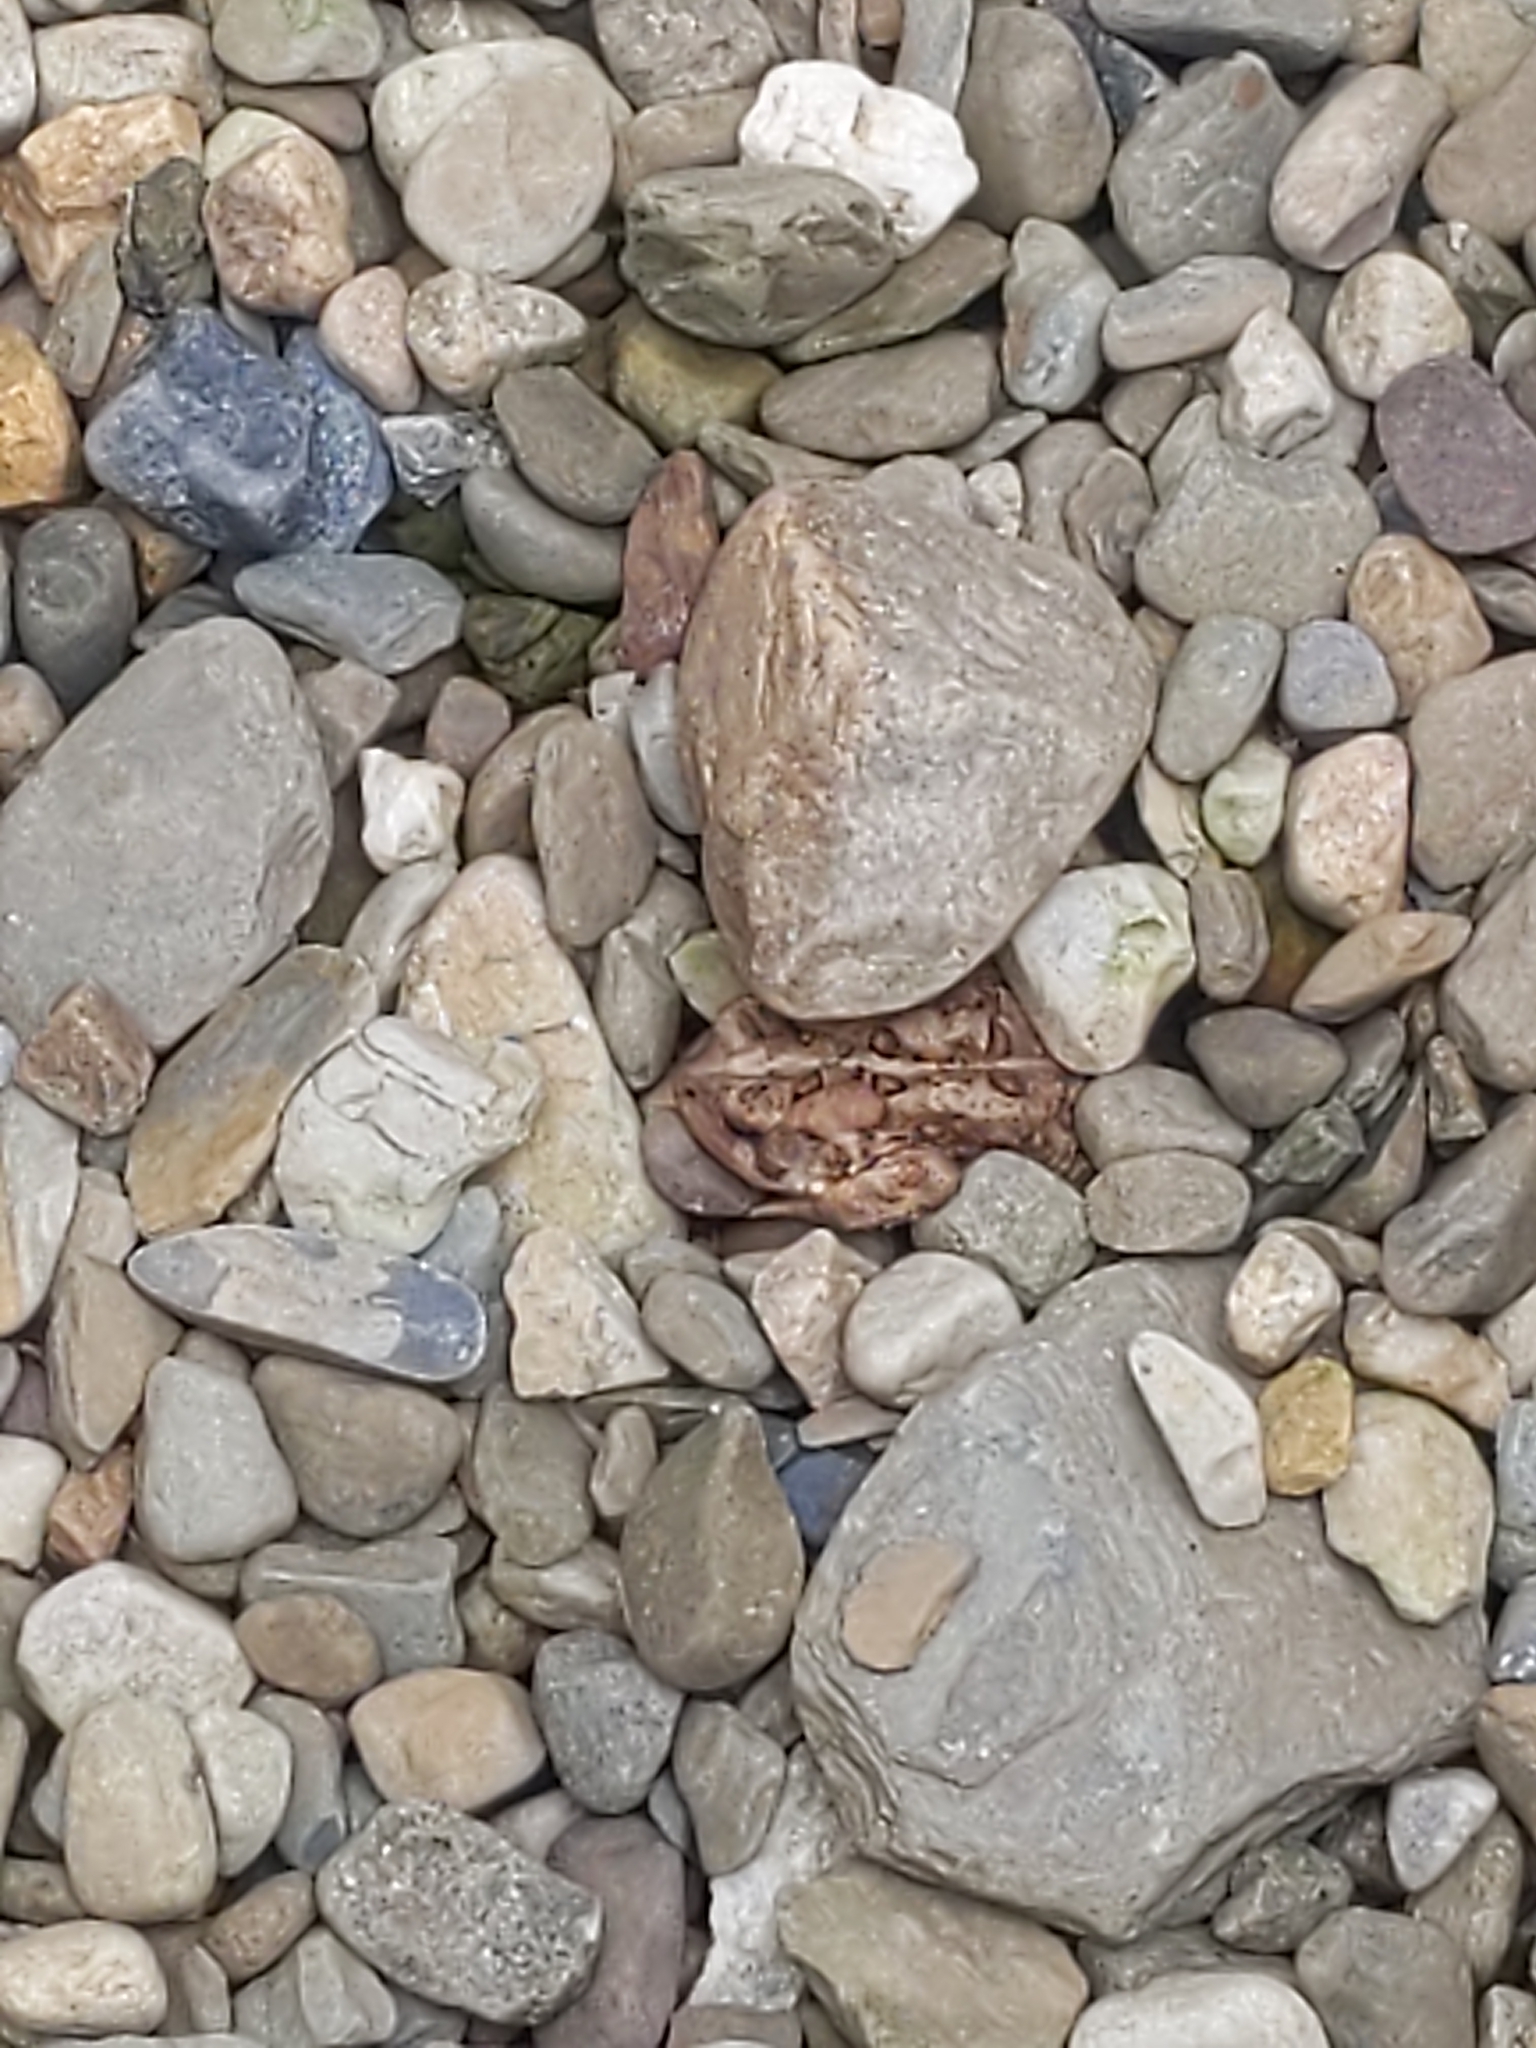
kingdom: Animalia
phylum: Chordata
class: Amphibia
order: Anura
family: Bufonidae
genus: Anaxyrus
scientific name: Anaxyrus americanus
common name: American toad
